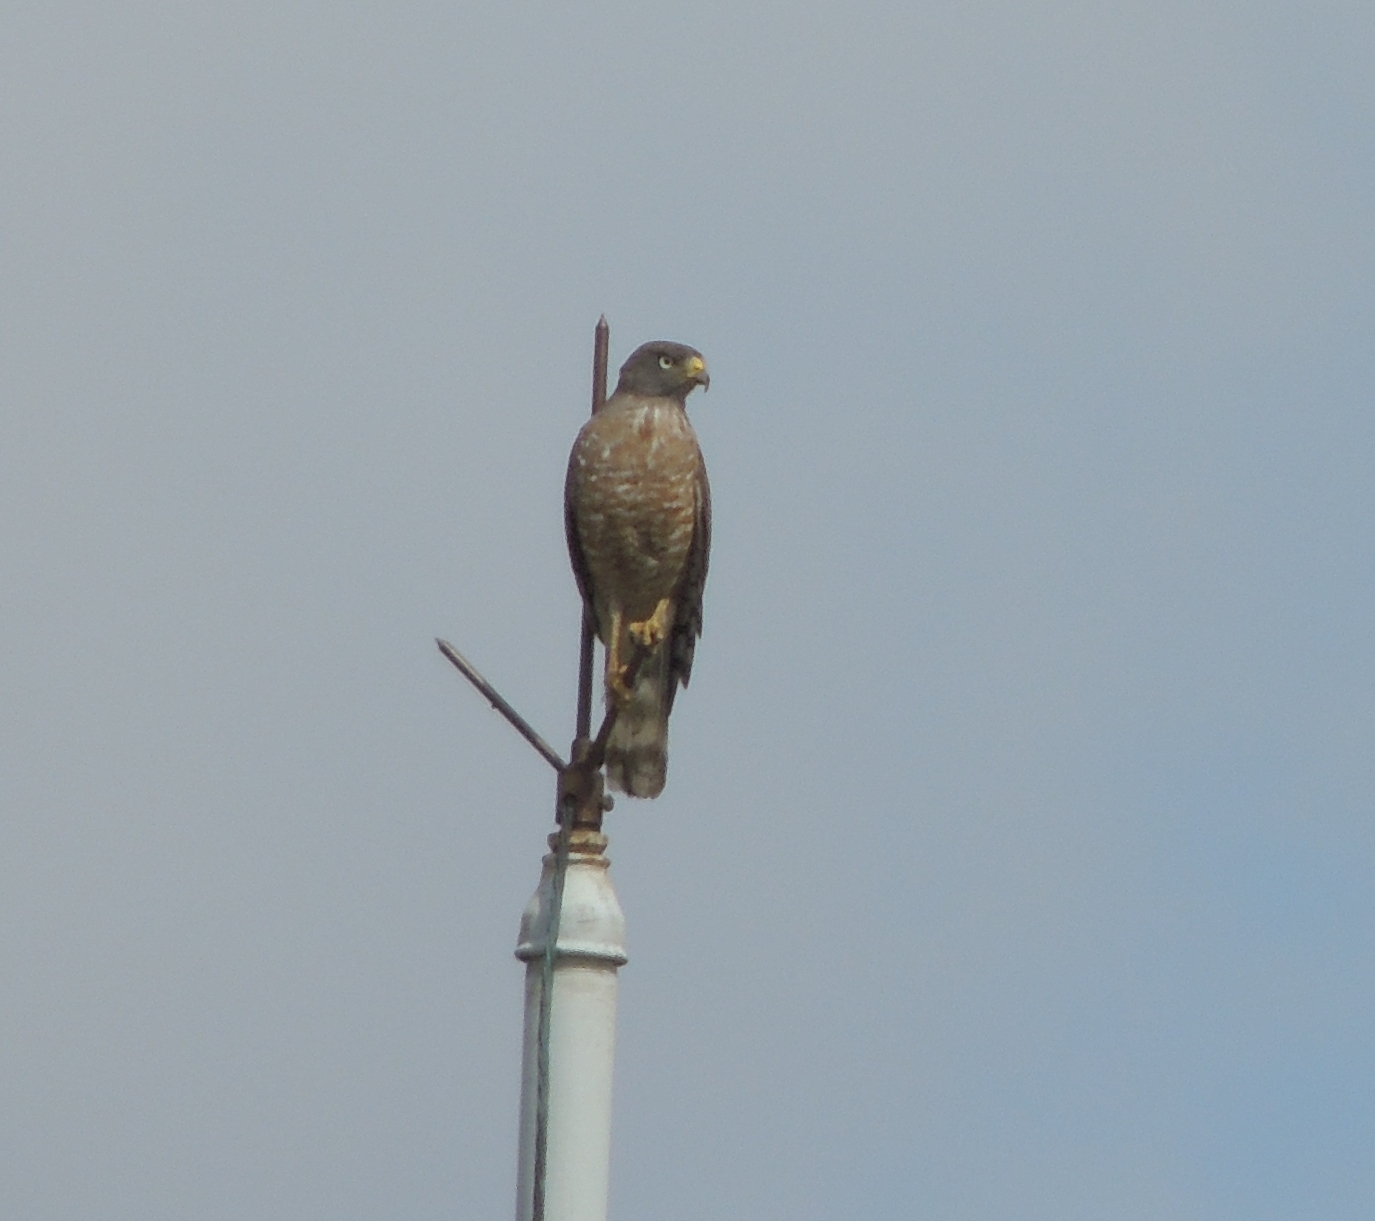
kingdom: Animalia
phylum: Chordata
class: Aves
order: Accipitriformes
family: Accipitridae
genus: Rupornis
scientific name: Rupornis magnirostris
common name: Roadside hawk
